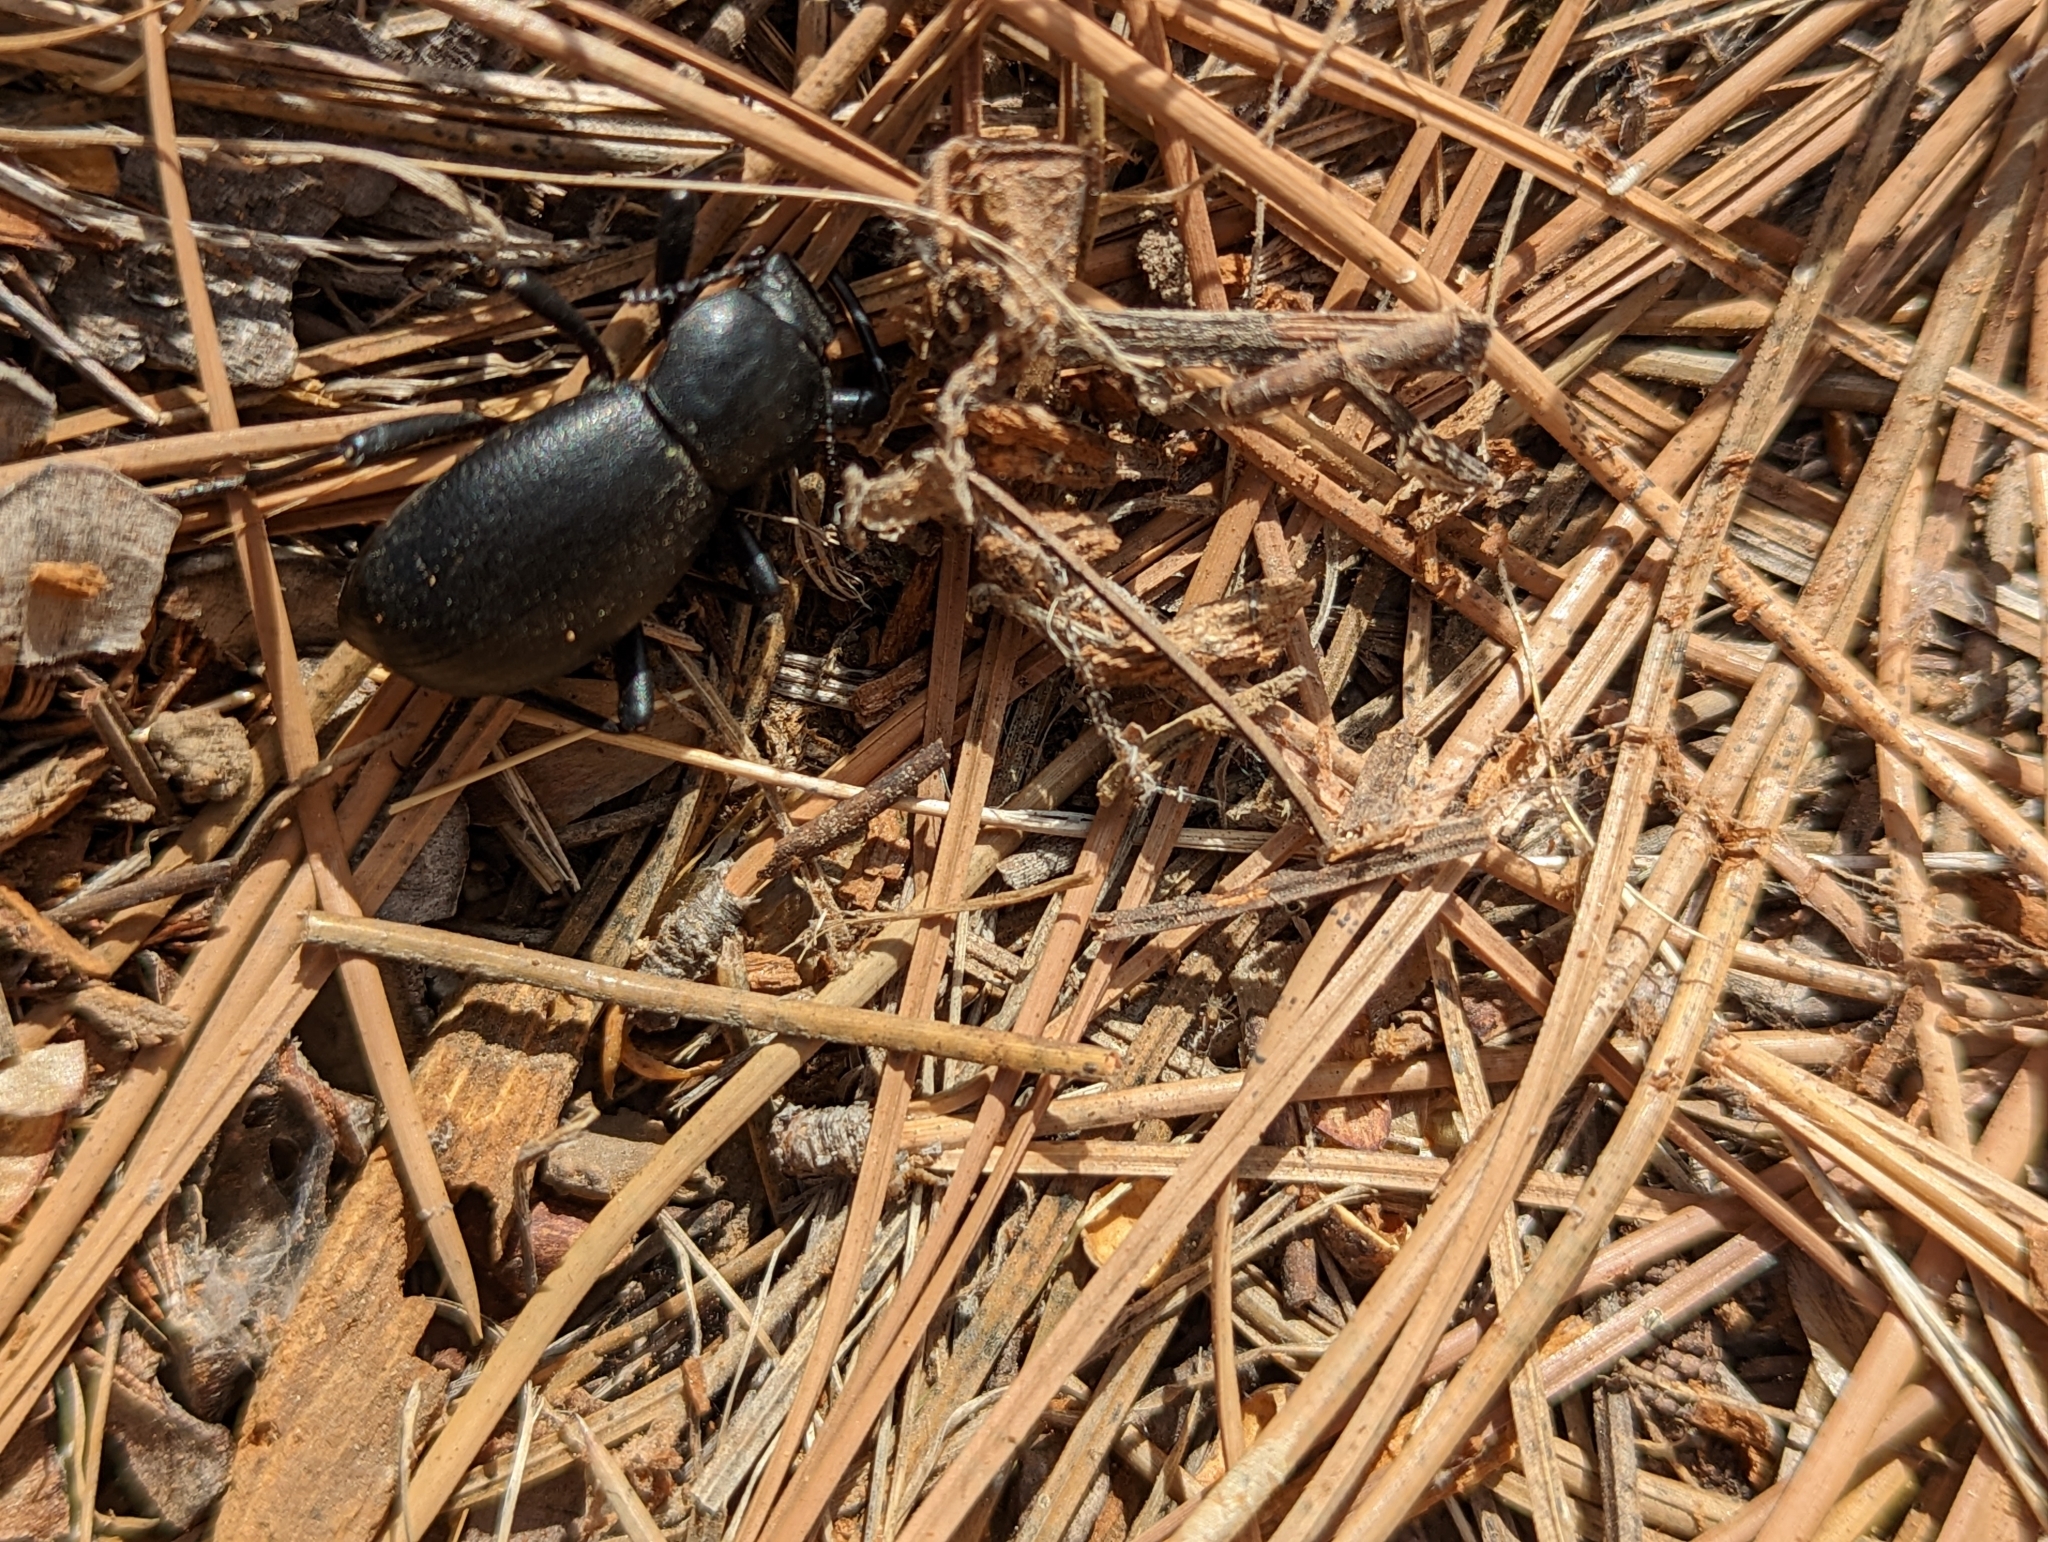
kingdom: Animalia
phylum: Arthropoda
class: Insecta
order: Coleoptera
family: Tenebrionidae
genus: Coelocnemis
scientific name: Coelocnemis dilaticollis
